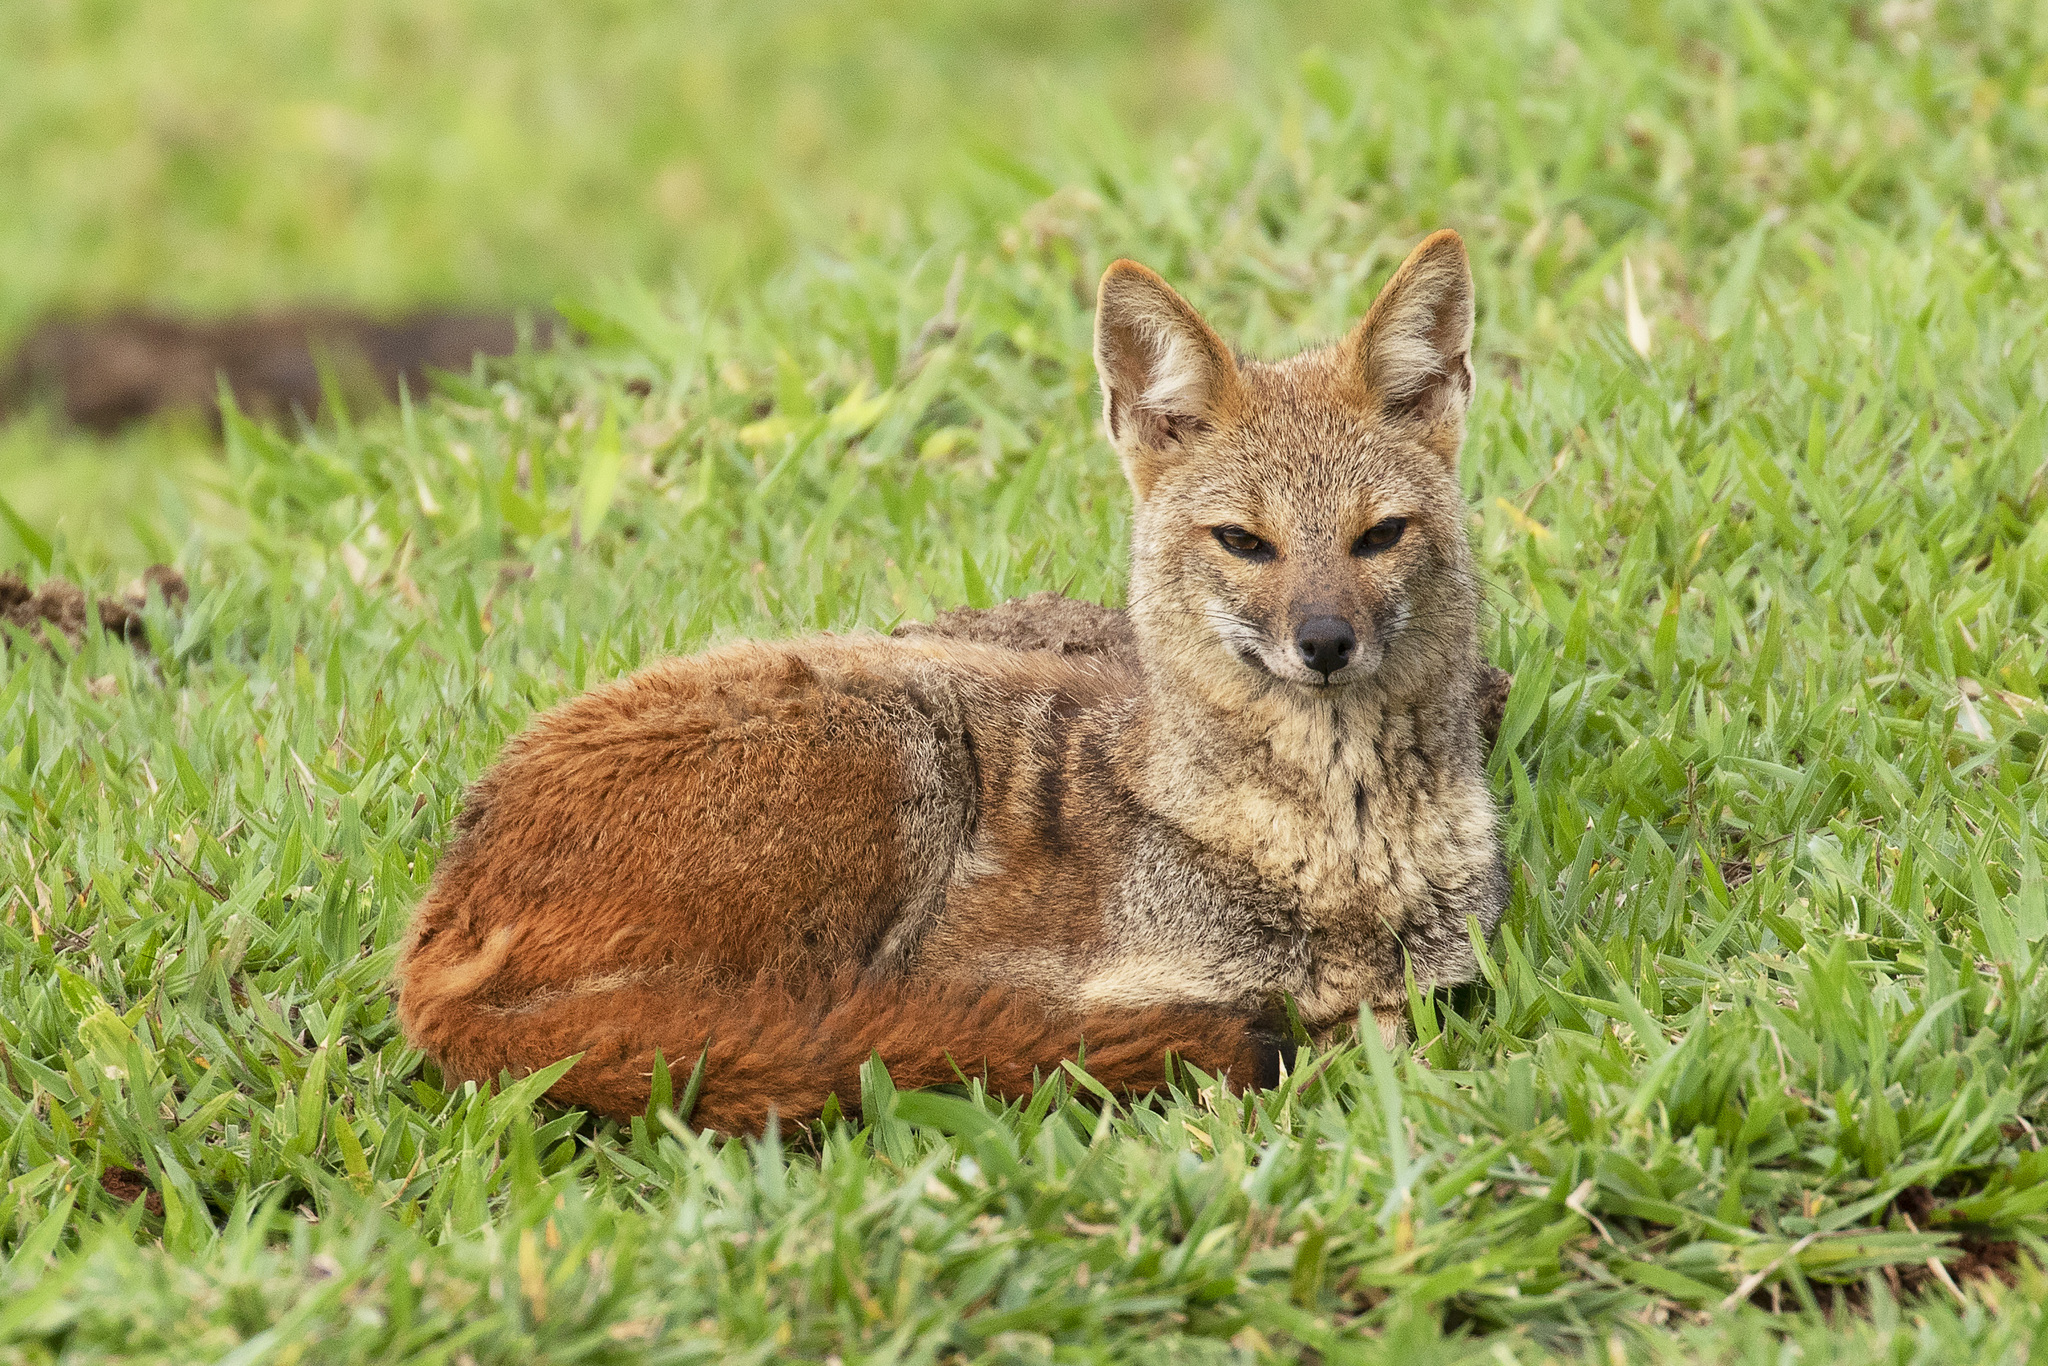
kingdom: Animalia
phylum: Chordata
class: Mammalia
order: Carnivora
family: Canidae
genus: Lycalopex
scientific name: Lycalopex vetulus
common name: Hoary fox
